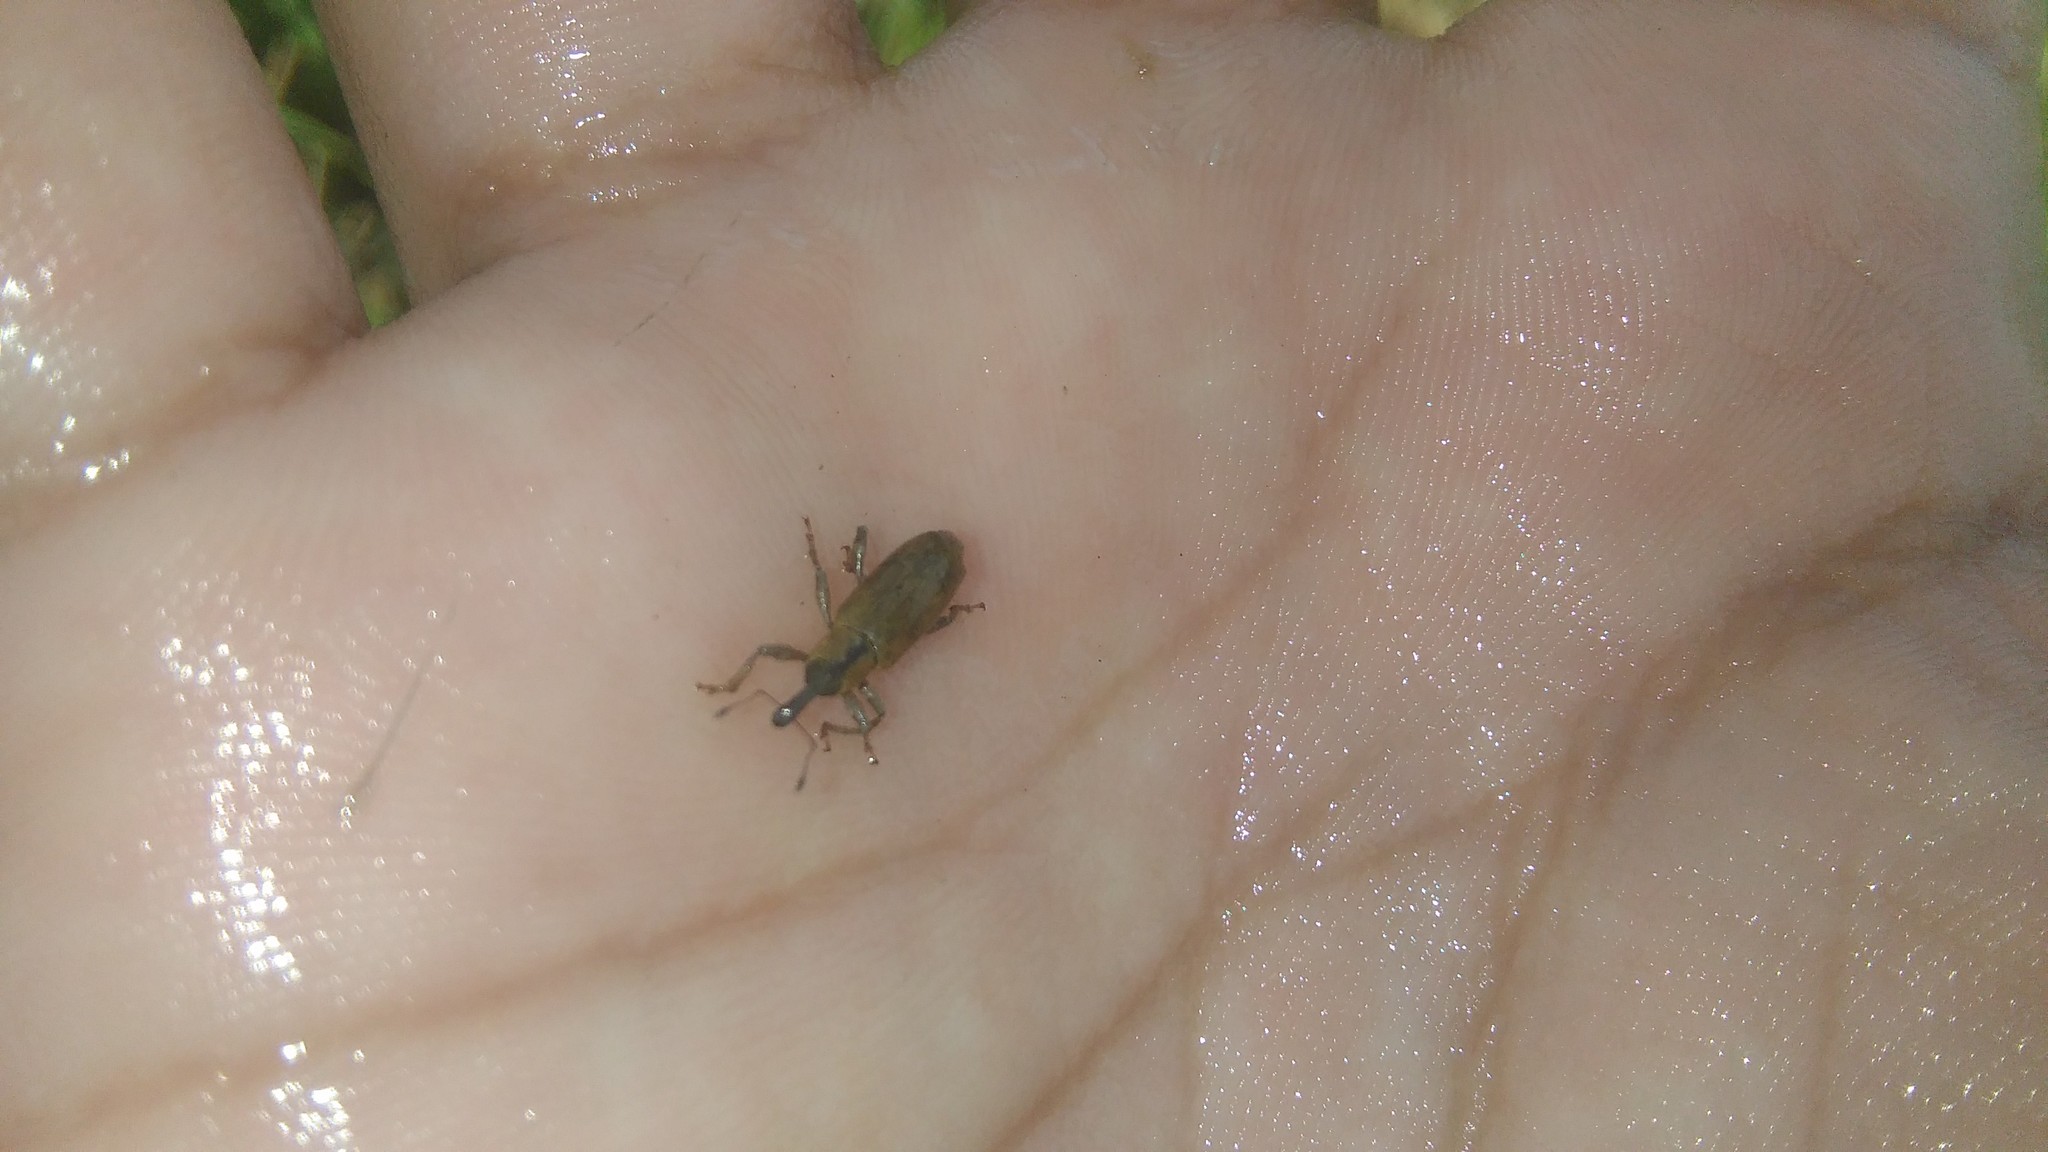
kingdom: Animalia
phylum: Arthropoda
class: Insecta
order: Coleoptera
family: Curculionidae
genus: Listronotus
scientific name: Listronotus
